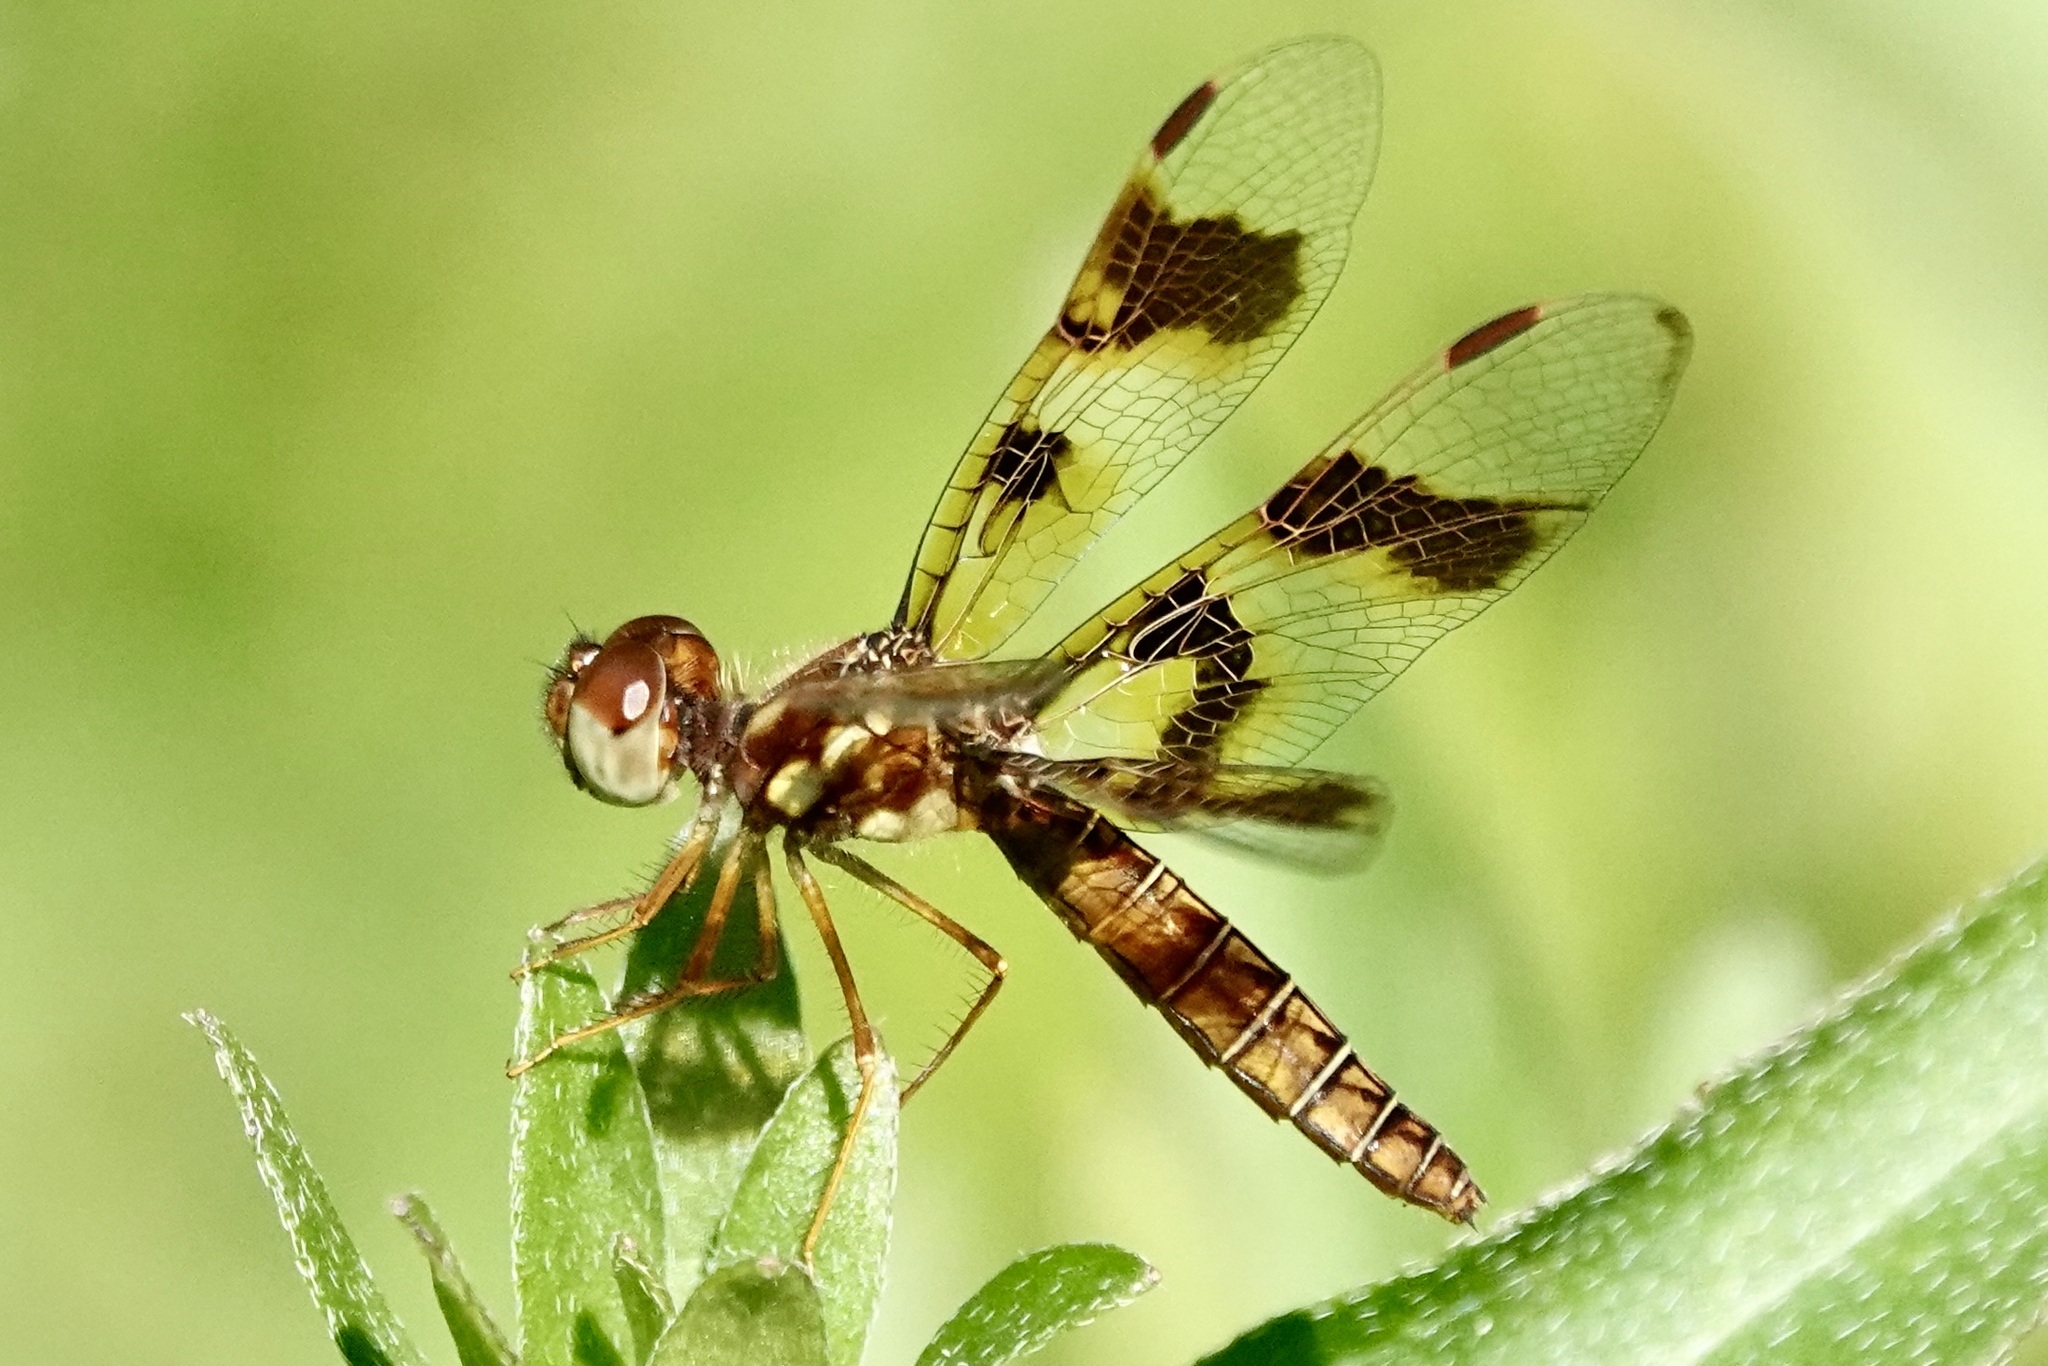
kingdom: Animalia
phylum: Arthropoda
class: Insecta
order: Odonata
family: Libellulidae
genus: Perithemis
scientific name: Perithemis tenera
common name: Eastern amberwing
